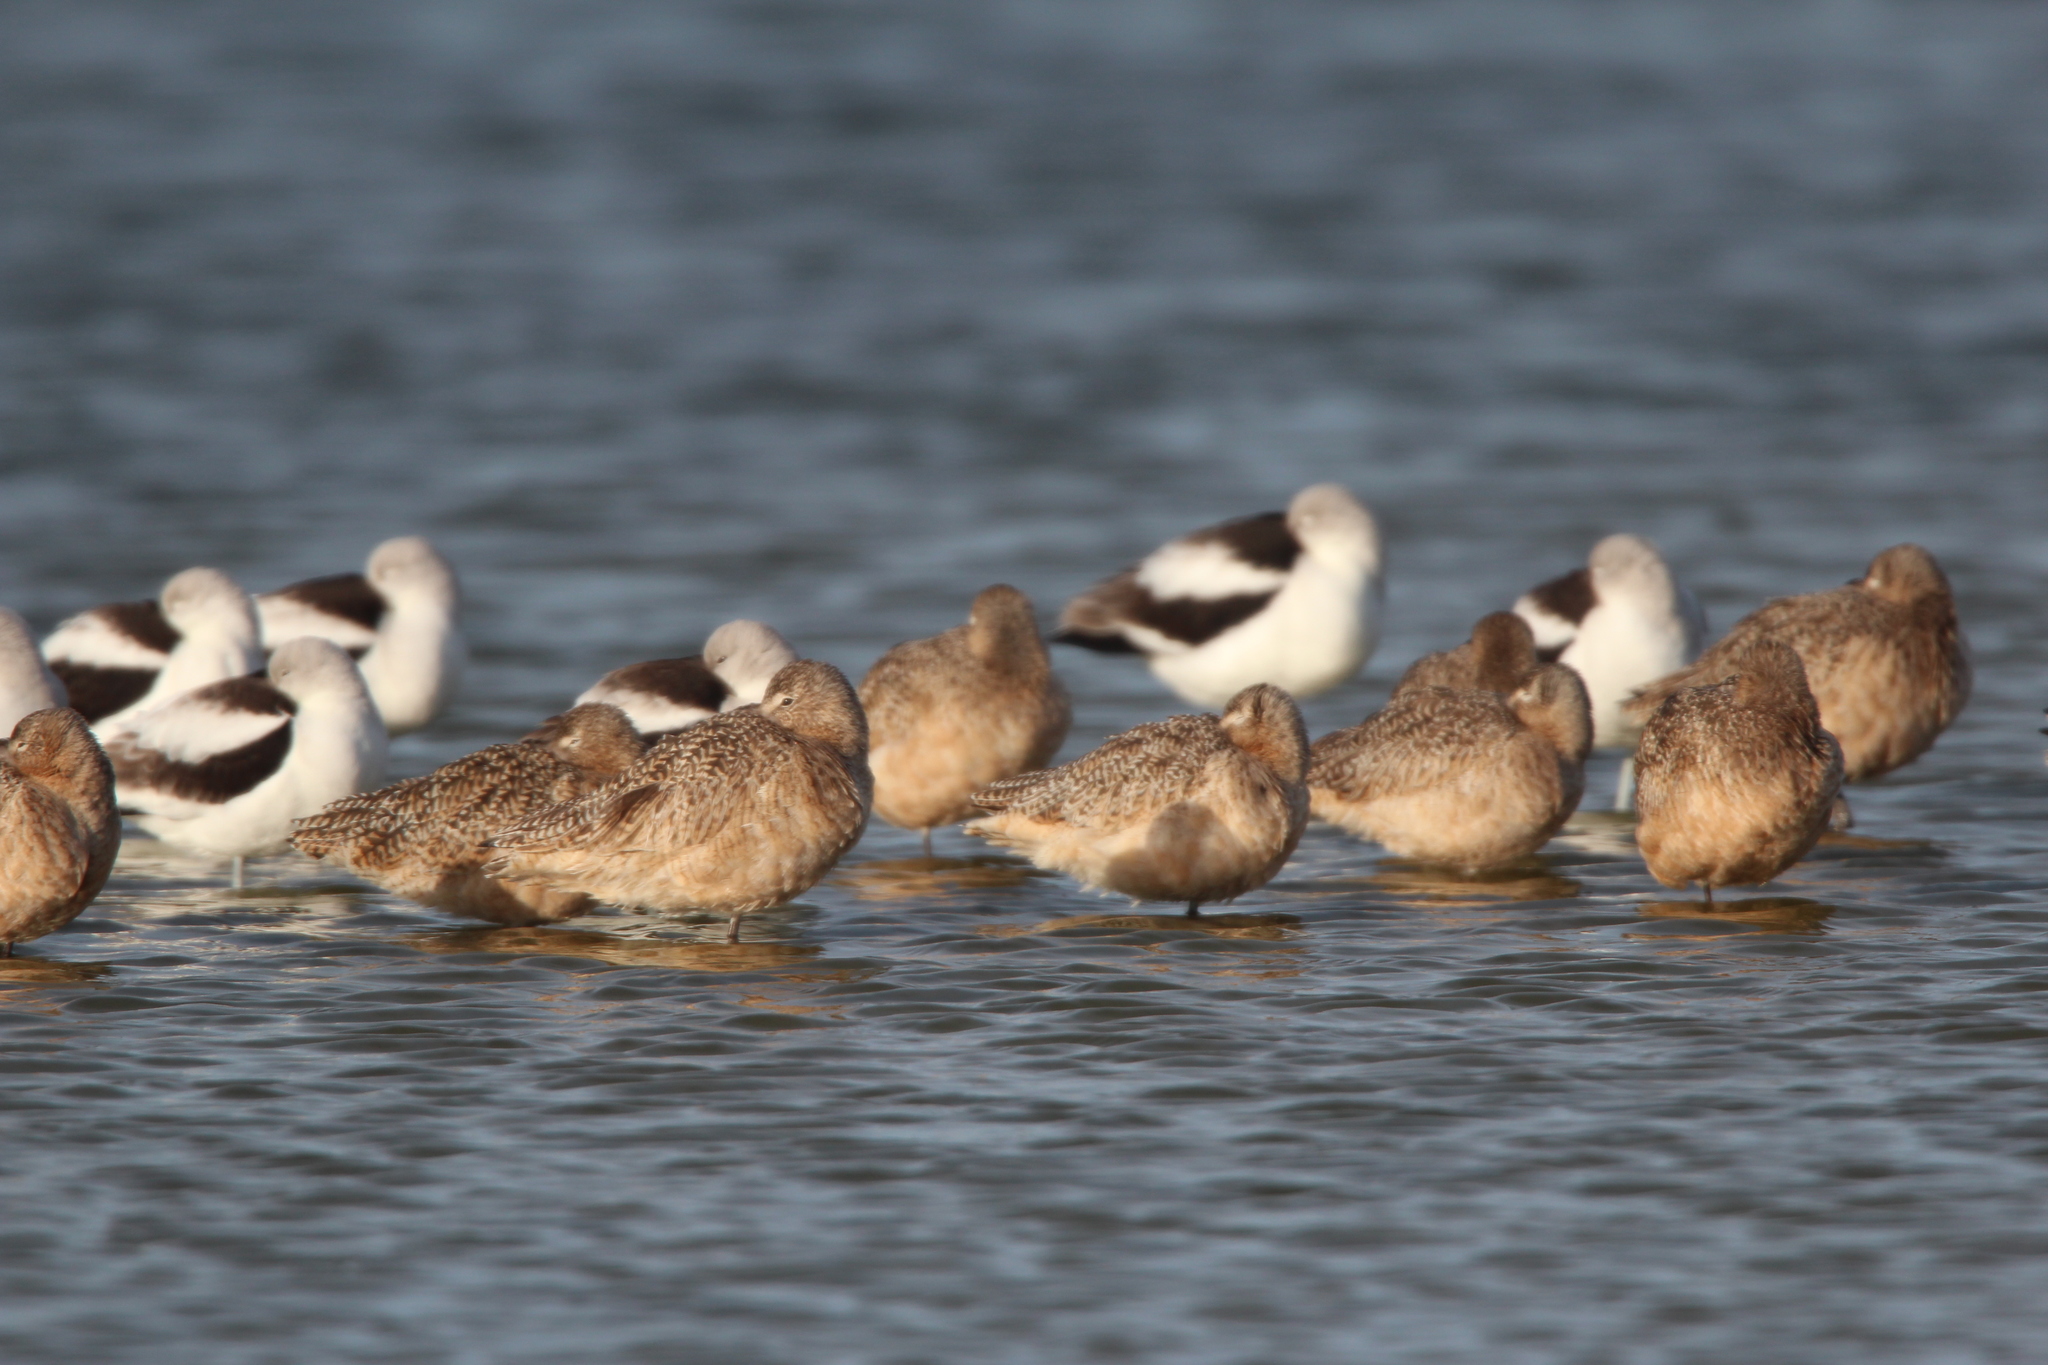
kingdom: Animalia
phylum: Chordata
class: Aves
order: Charadriiformes
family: Scolopacidae
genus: Limosa
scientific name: Limosa fedoa
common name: Marbled godwit
